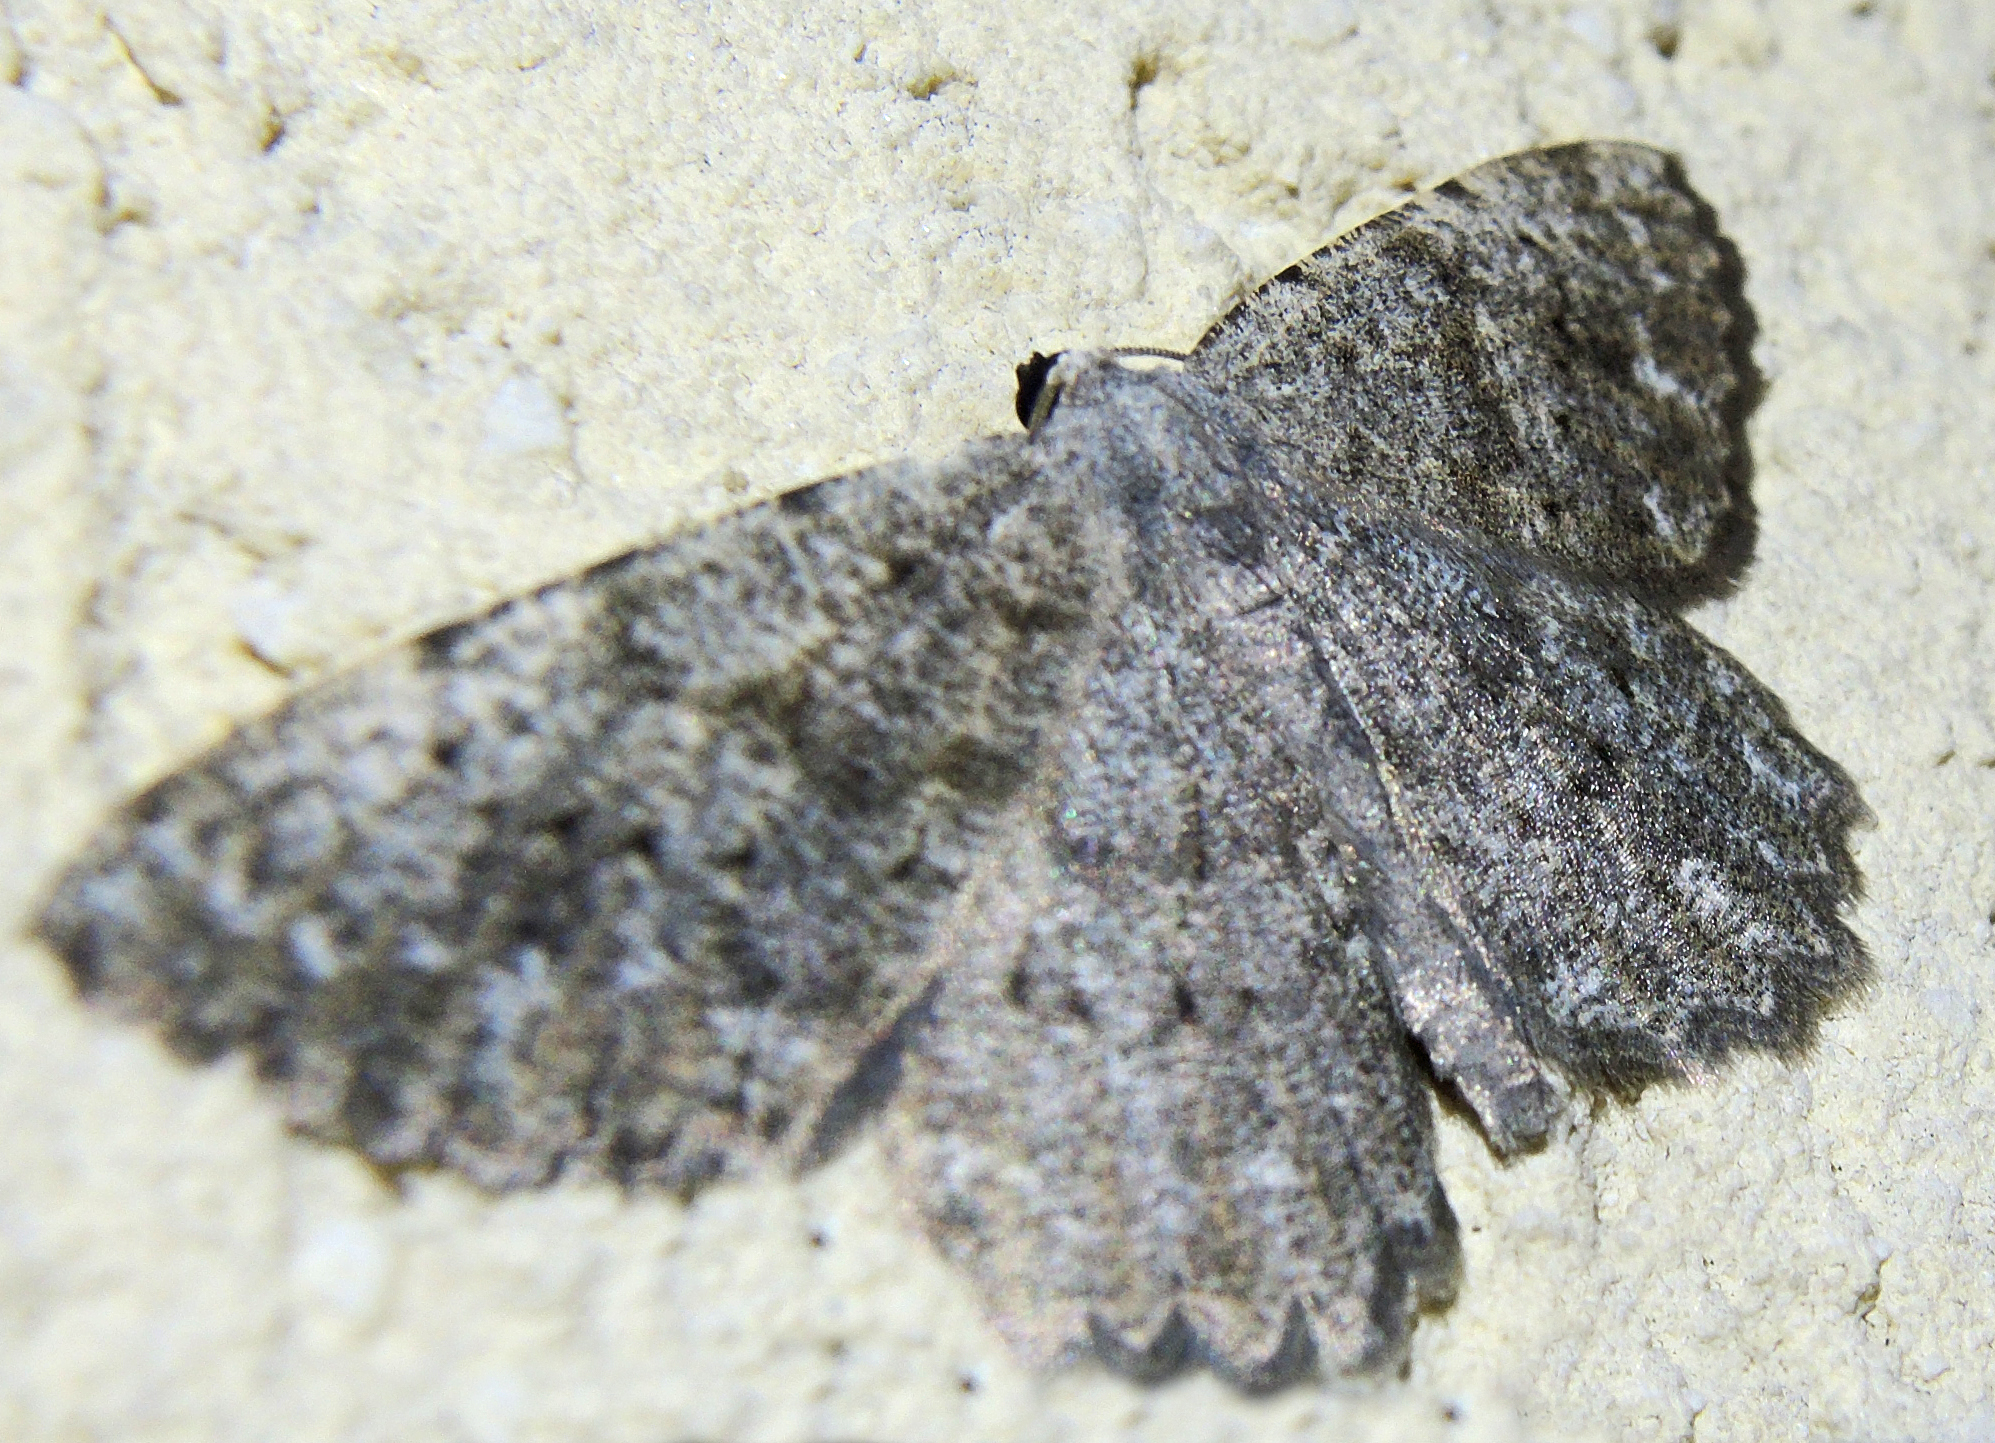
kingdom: Animalia
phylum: Arthropoda
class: Insecta
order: Lepidoptera
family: Geometridae
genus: Gnophos
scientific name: Gnophos sartata
